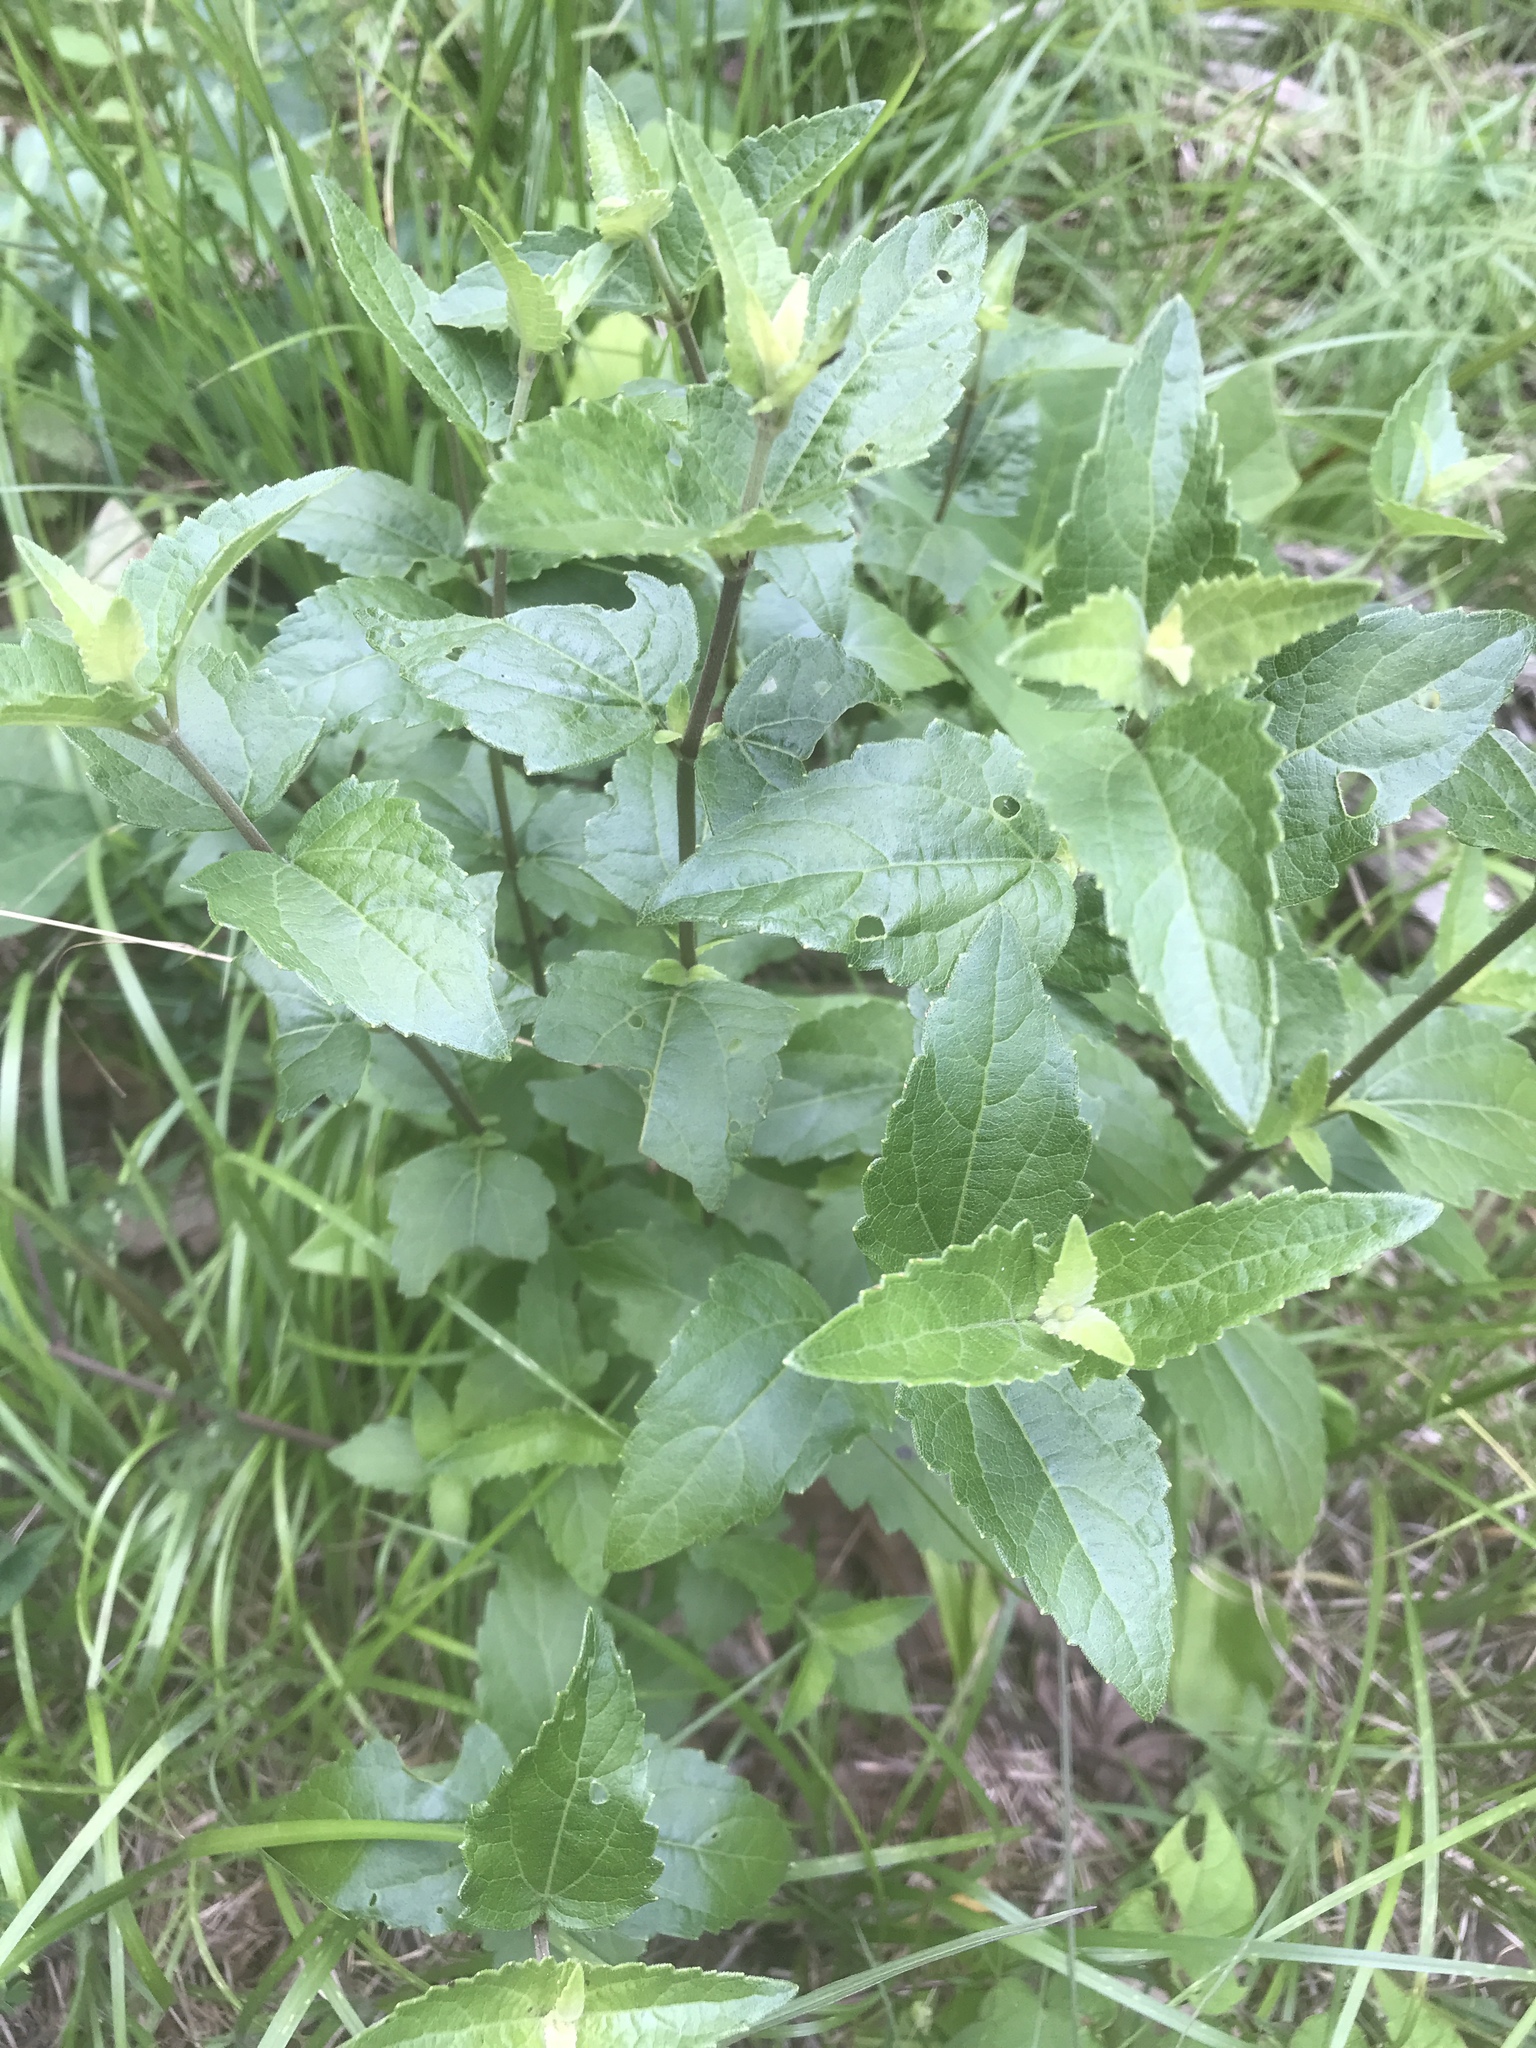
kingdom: Plantae
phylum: Tracheophyta
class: Magnoliopsida
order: Asterales
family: Asteraceae
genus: Ageratina
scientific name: Ageratina aromatica
